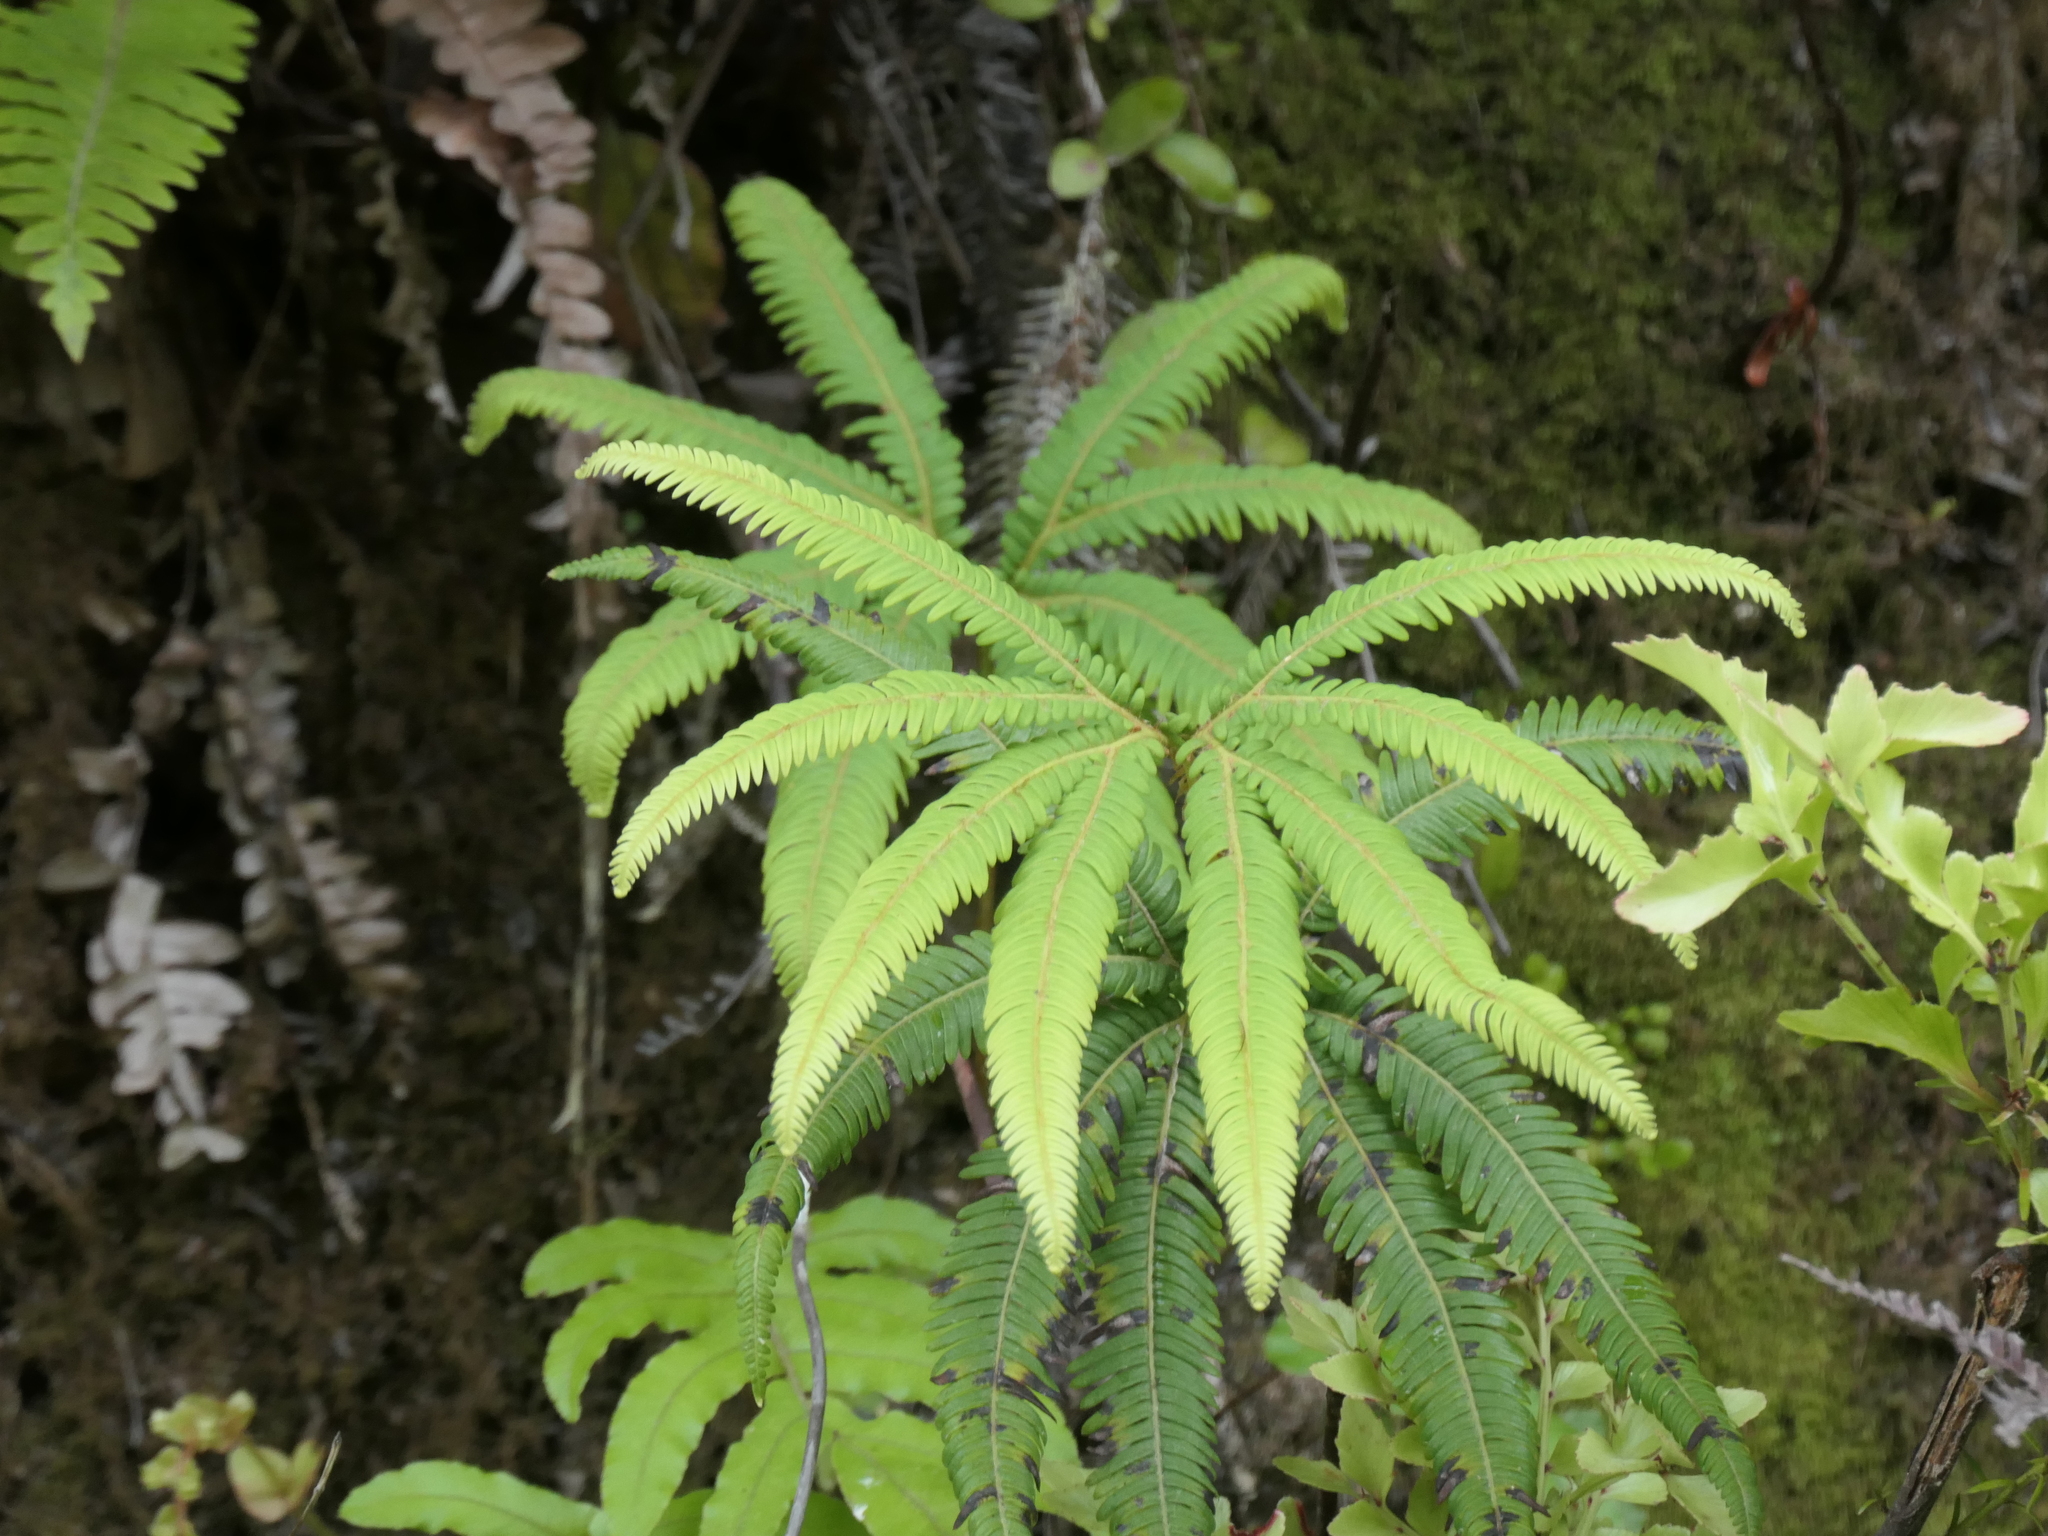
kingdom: Plantae
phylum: Tracheophyta
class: Polypodiopsida
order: Gleicheniales
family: Gleicheniaceae
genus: Sticherus
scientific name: Sticherus cunninghamii
